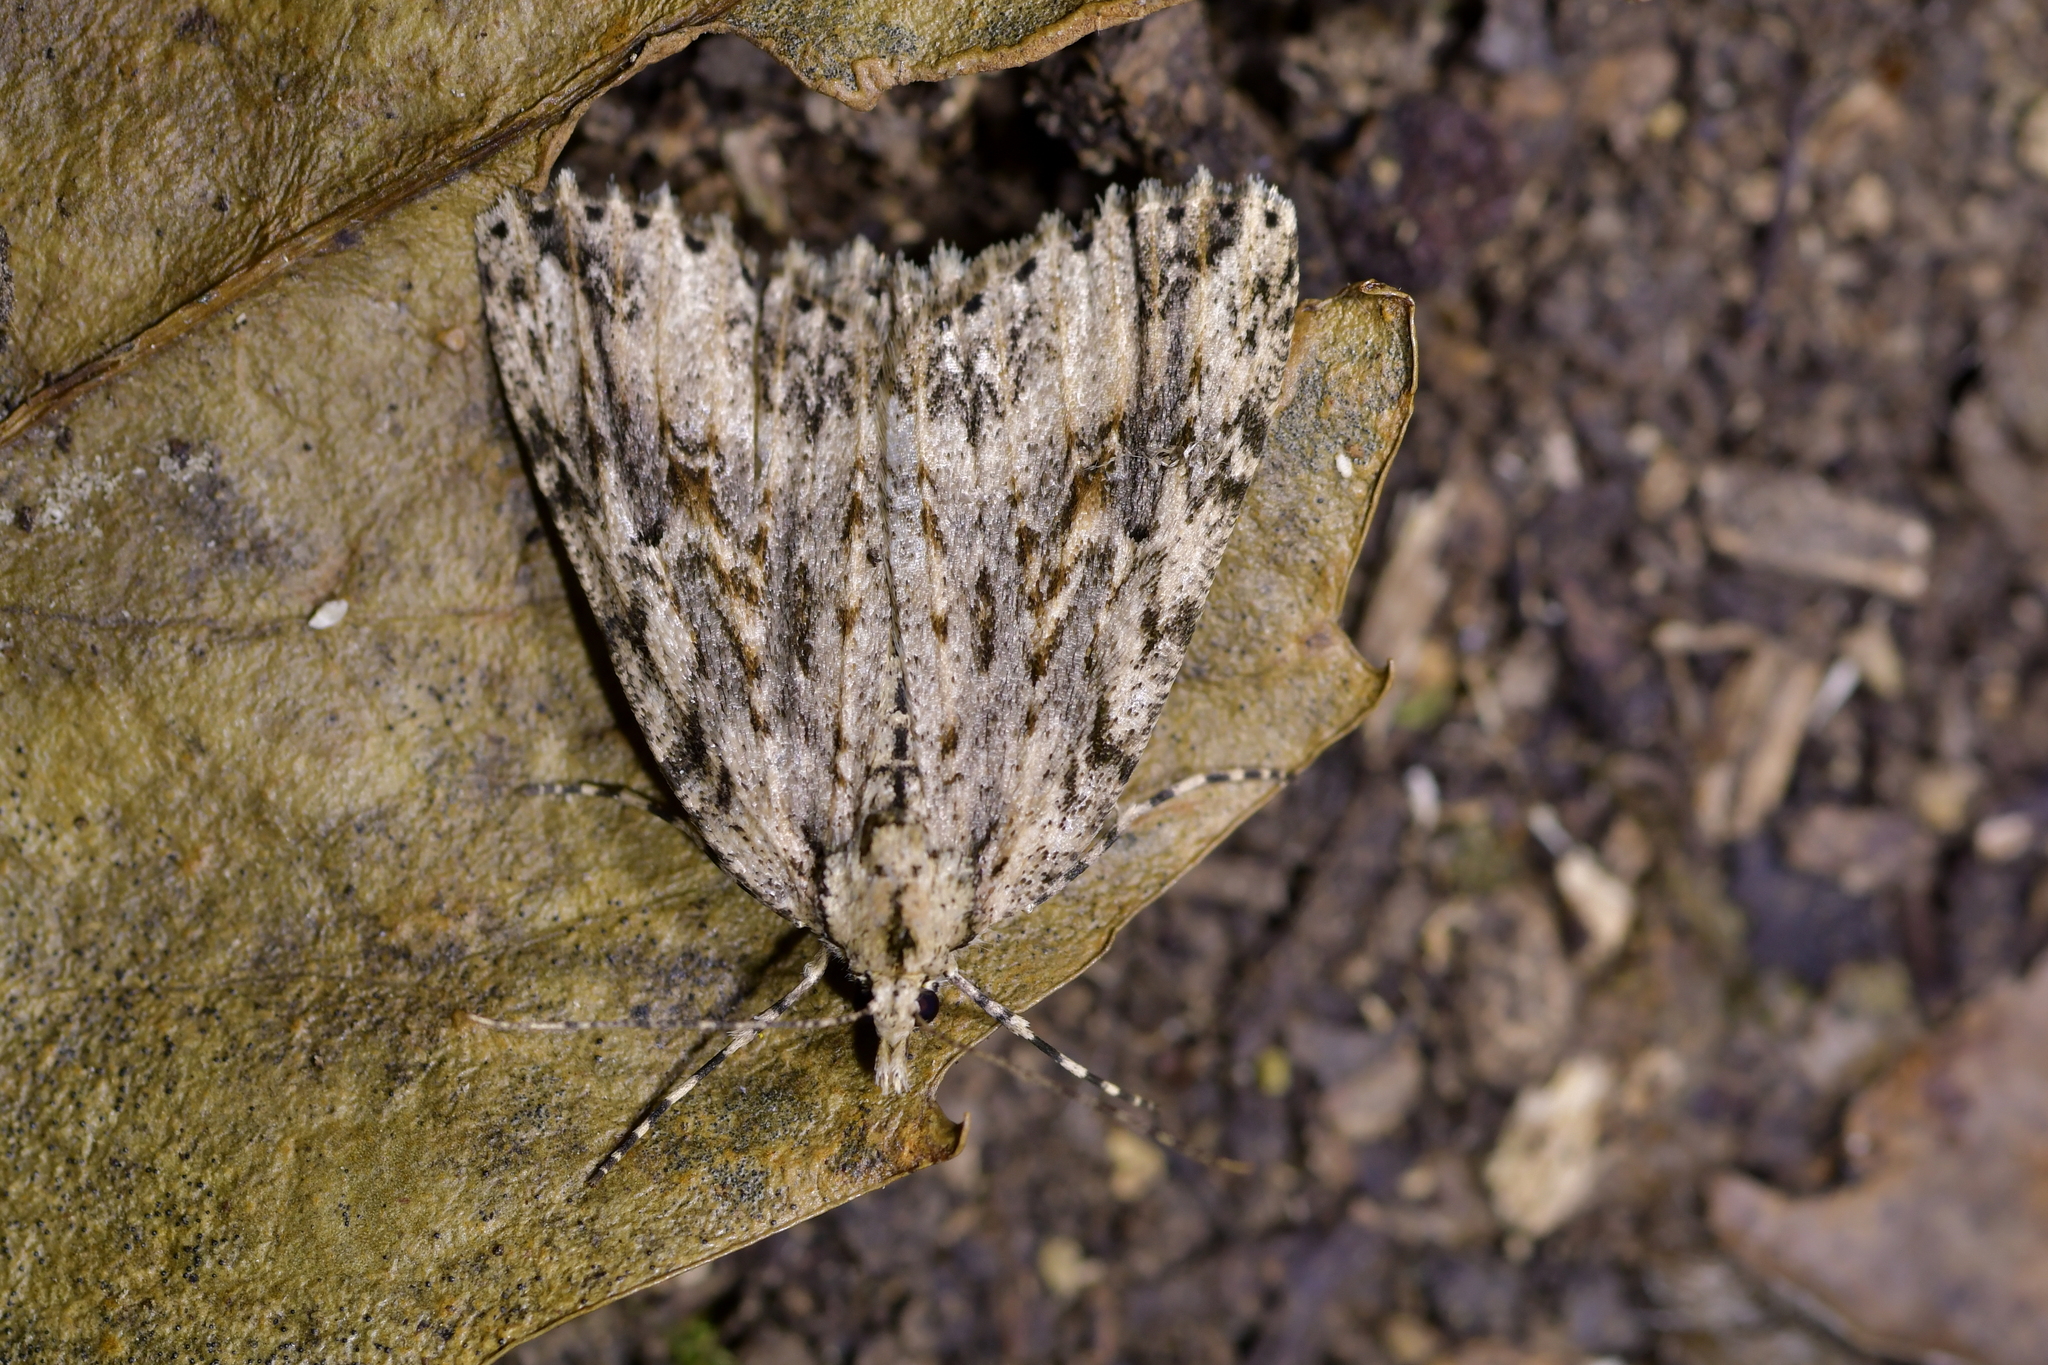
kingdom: Animalia
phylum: Arthropoda
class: Insecta
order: Lepidoptera
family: Geometridae
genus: Pseudocoremia
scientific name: Pseudocoremia rudisata
